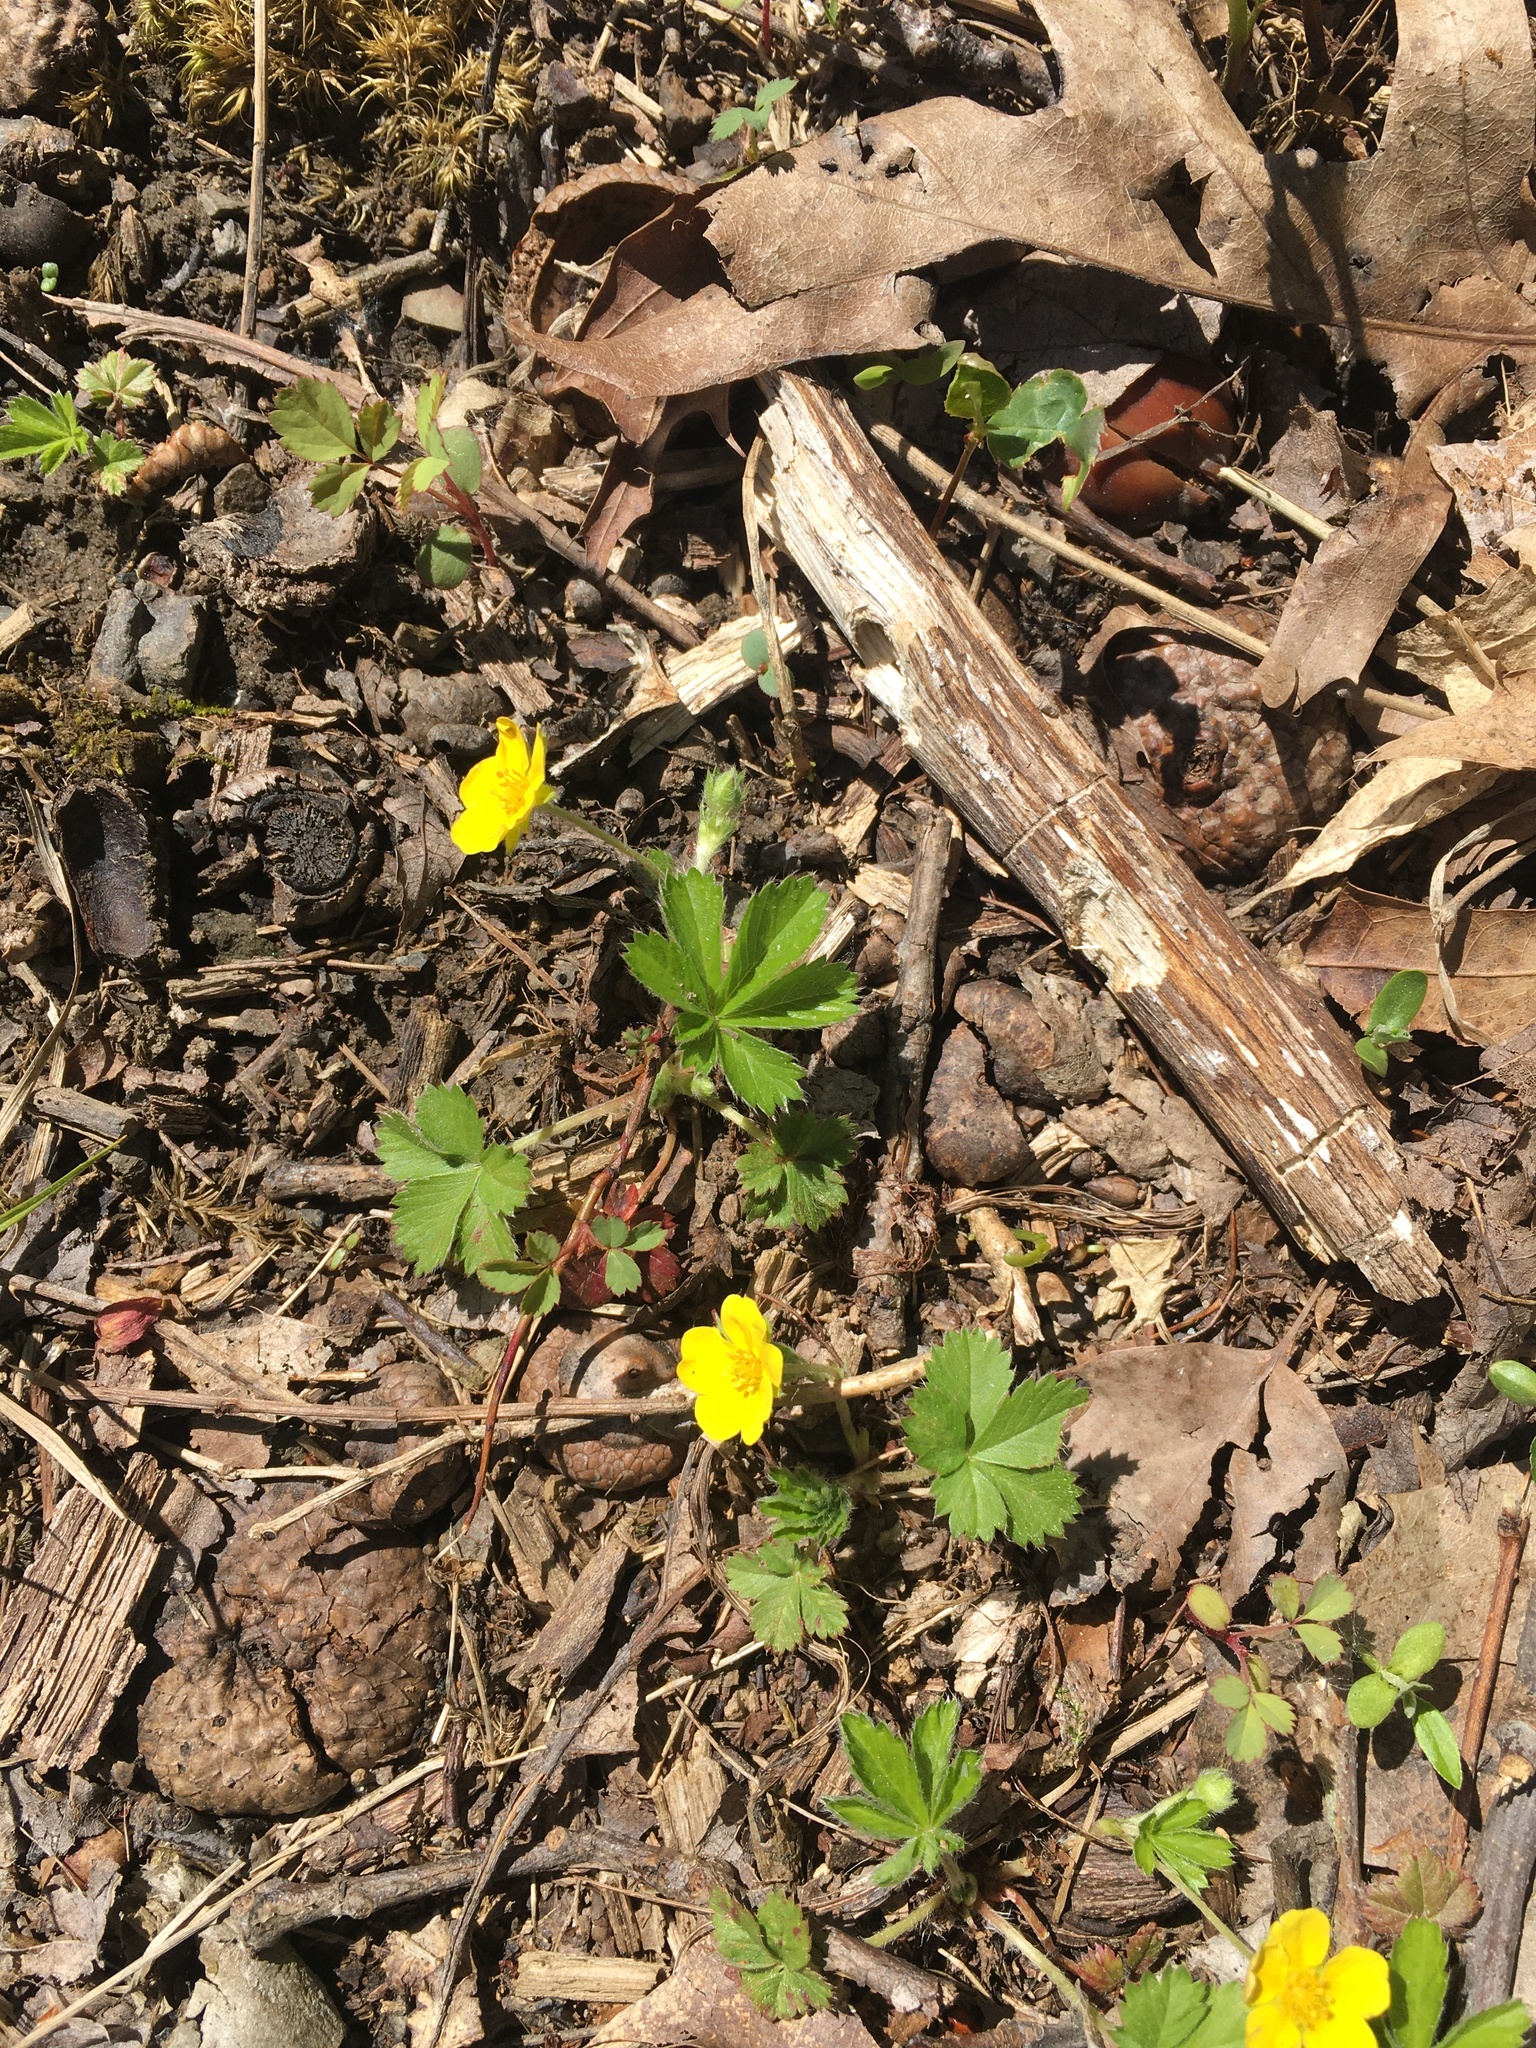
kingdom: Plantae
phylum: Tracheophyta
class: Magnoliopsida
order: Rosales
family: Rosaceae
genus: Potentilla
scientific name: Potentilla canadensis
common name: Canada cinquefoil
